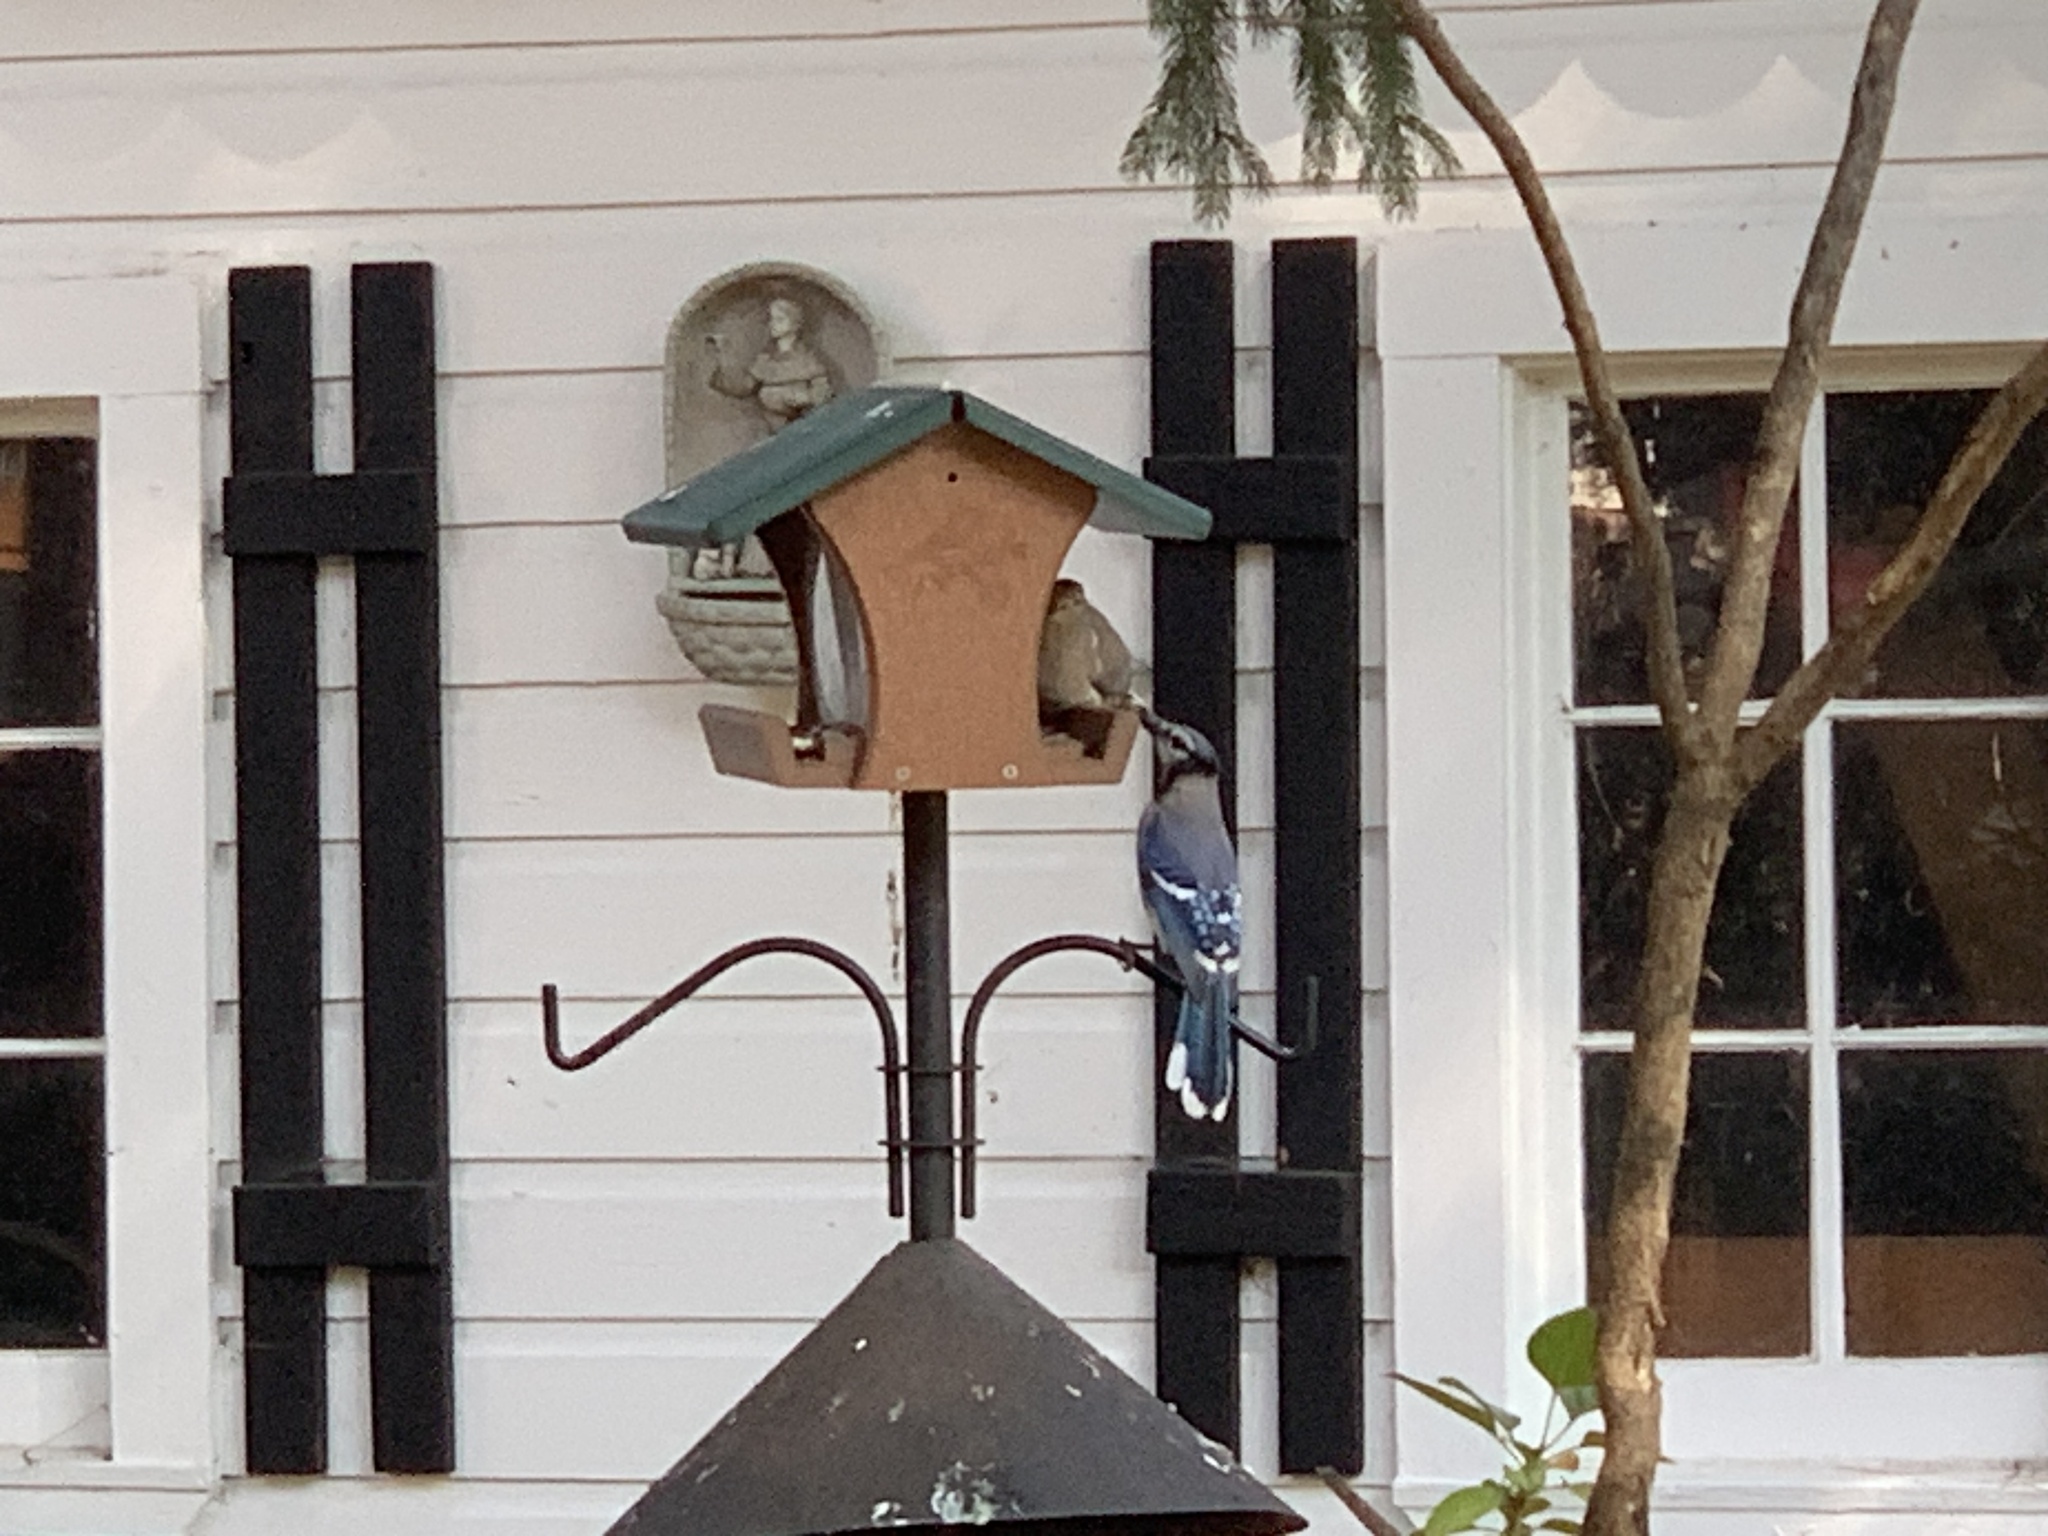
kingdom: Animalia
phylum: Chordata
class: Aves
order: Passeriformes
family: Corvidae
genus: Cyanocitta
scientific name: Cyanocitta cristata
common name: Blue jay
